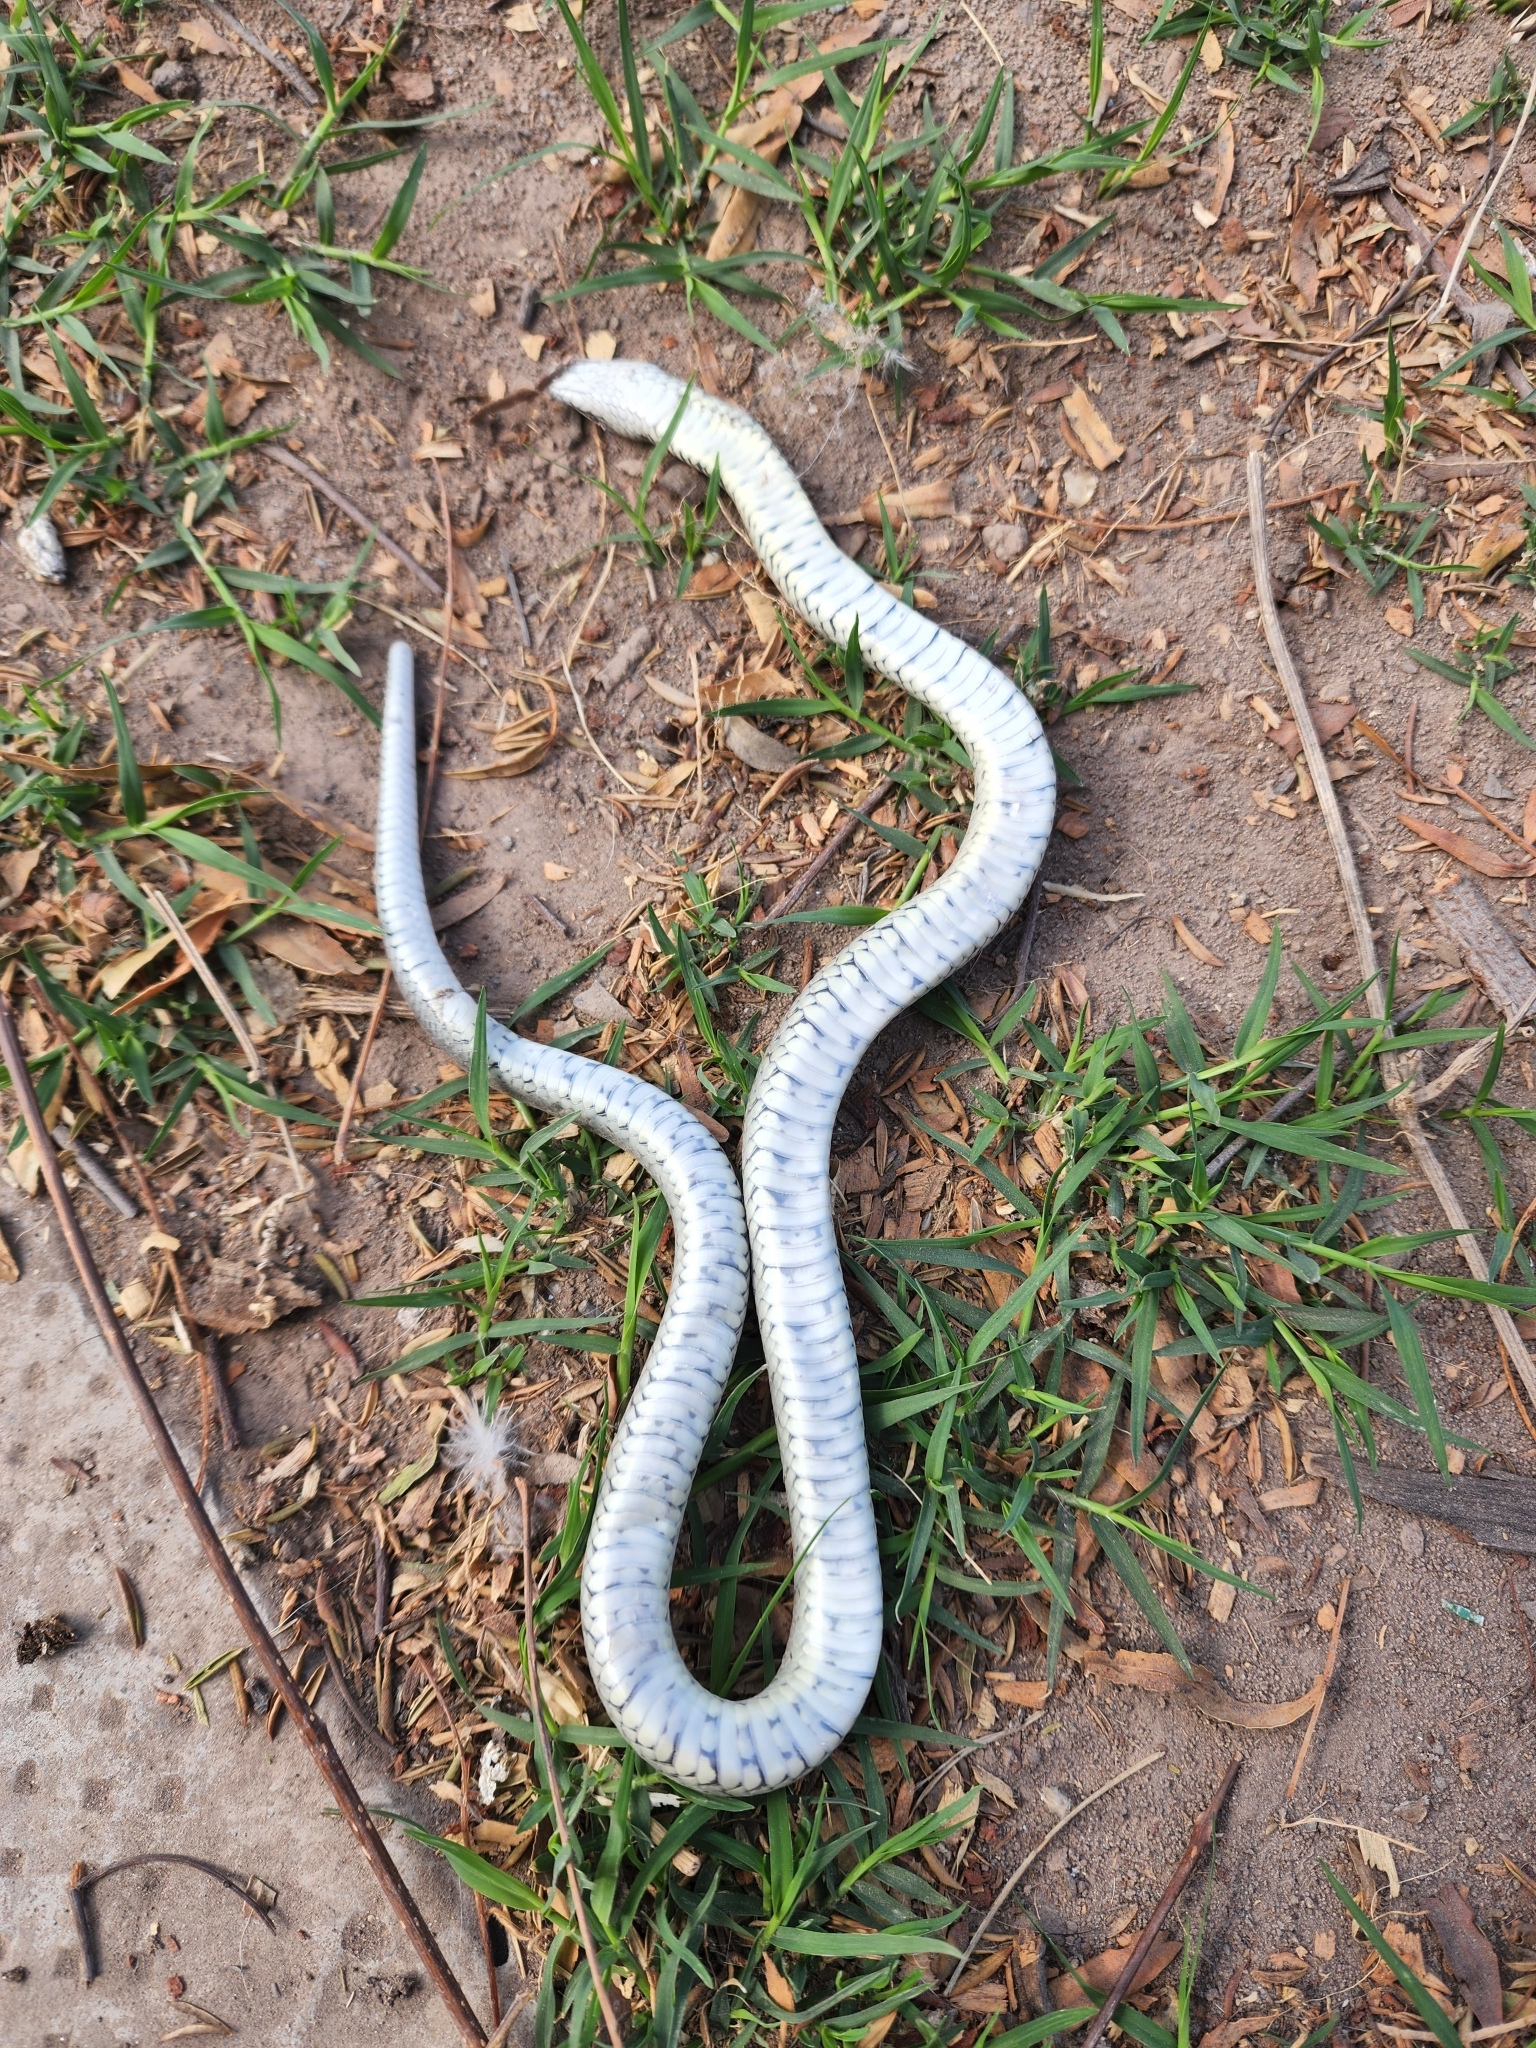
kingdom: Animalia
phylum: Chordata
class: Squamata
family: Colubridae
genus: Erythrolamprus
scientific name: Erythrolamprus ceii
